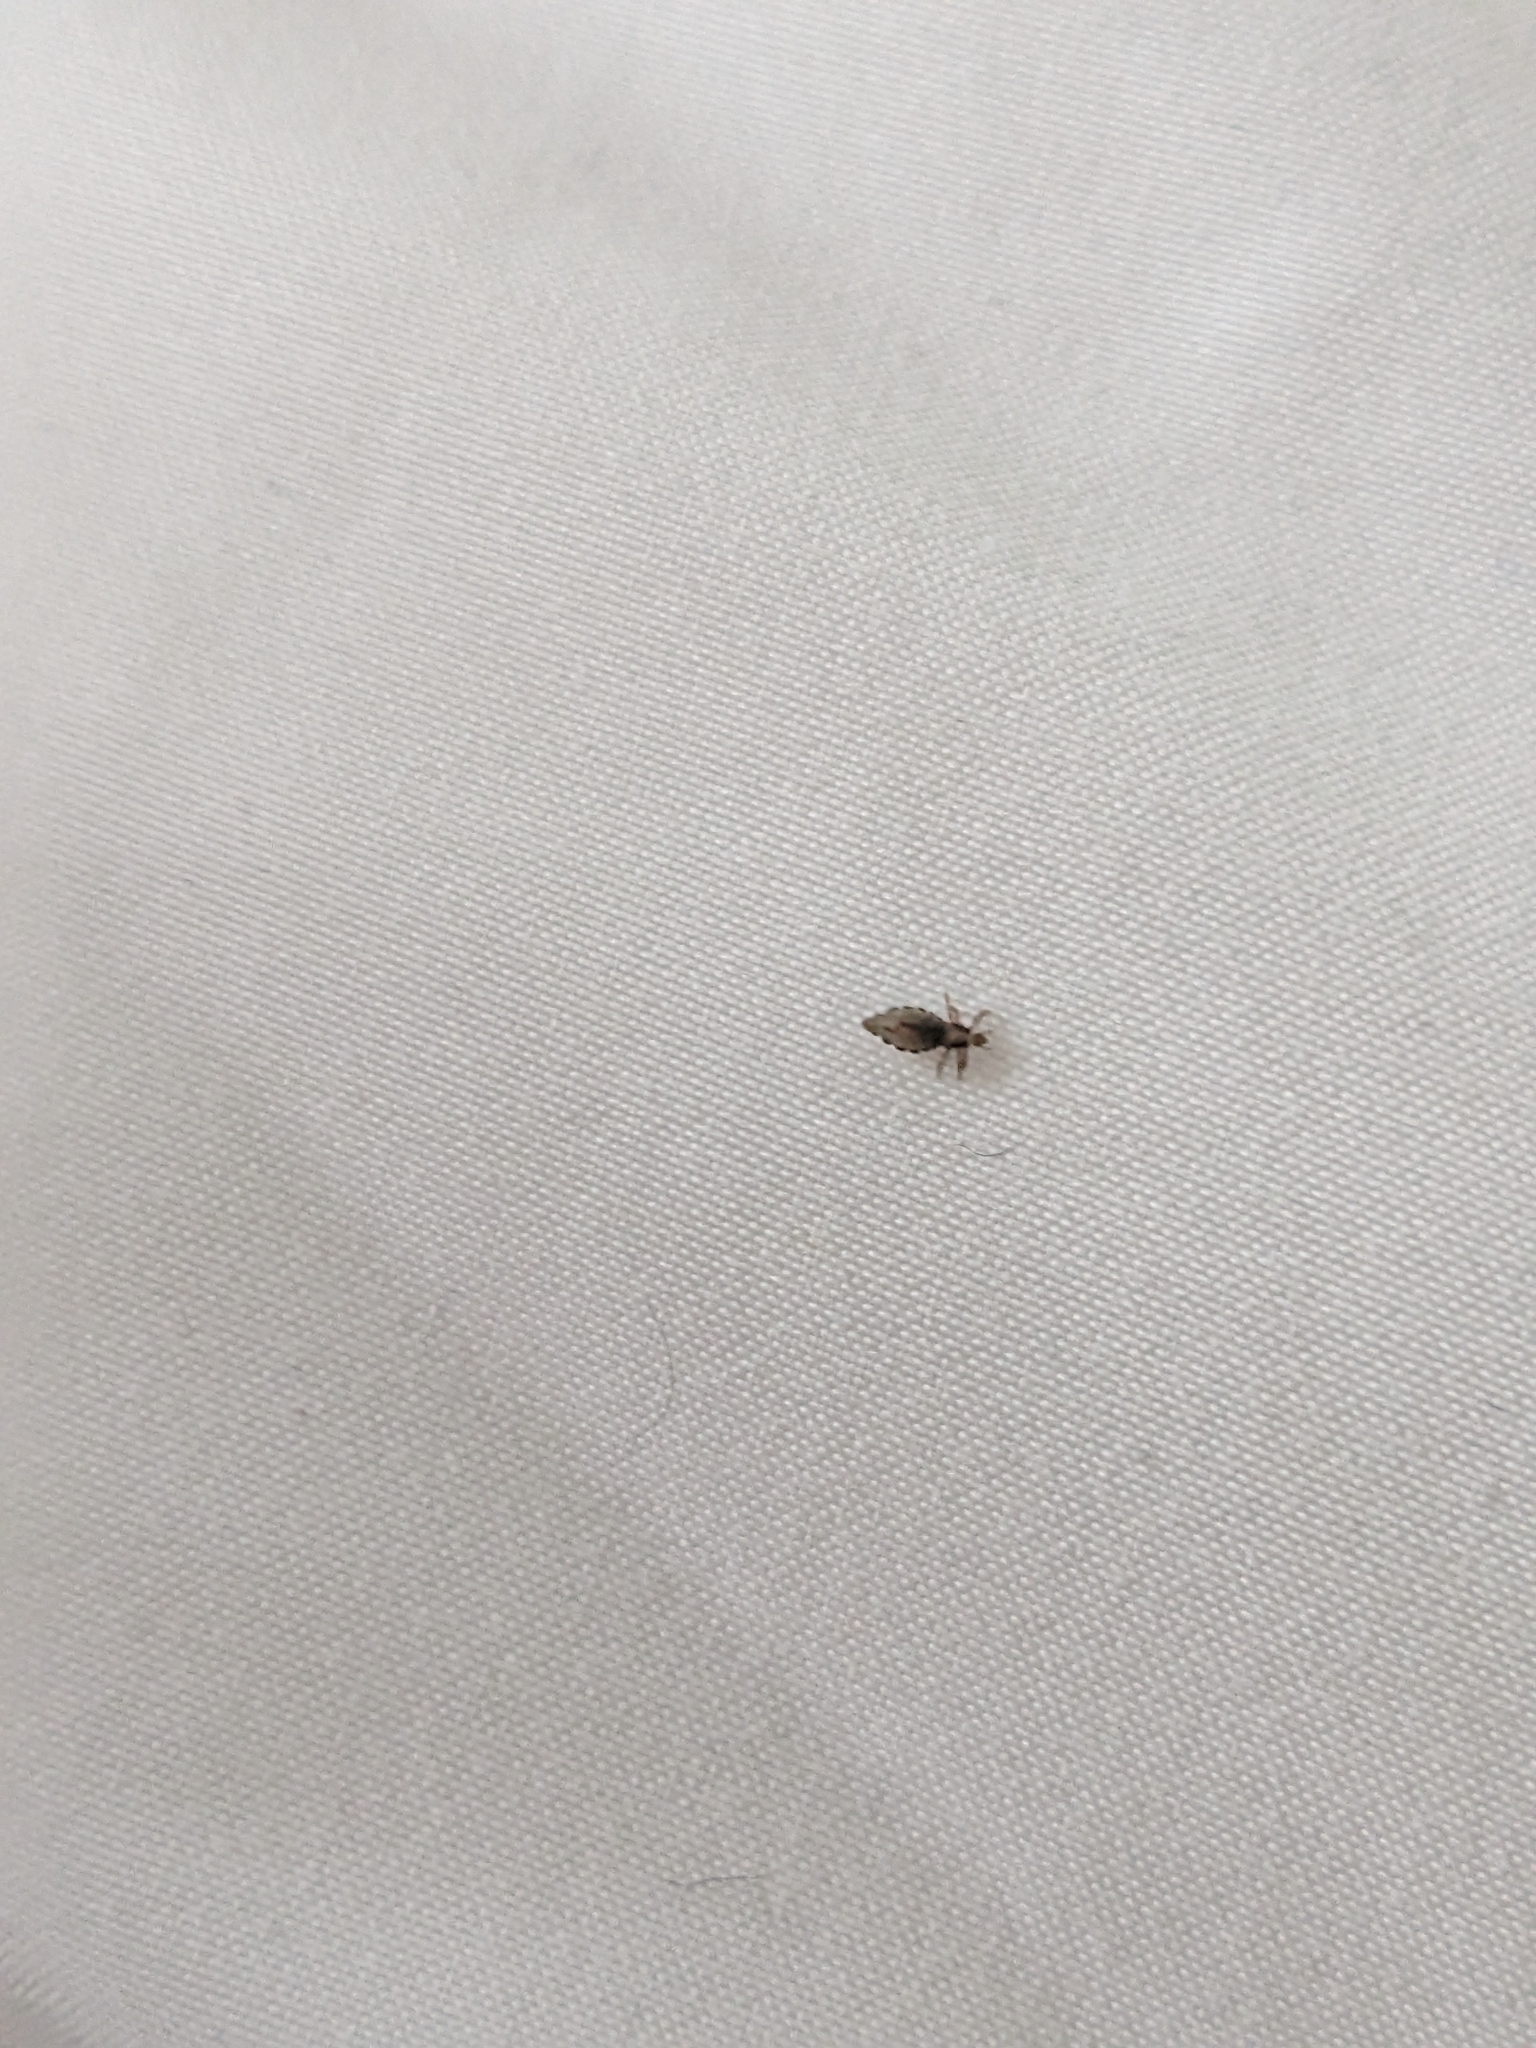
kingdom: Animalia
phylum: Arthropoda
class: Insecta
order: Psocodea
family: Pediculidae
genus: Pediculus
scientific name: Pediculus humanus
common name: Body louse
